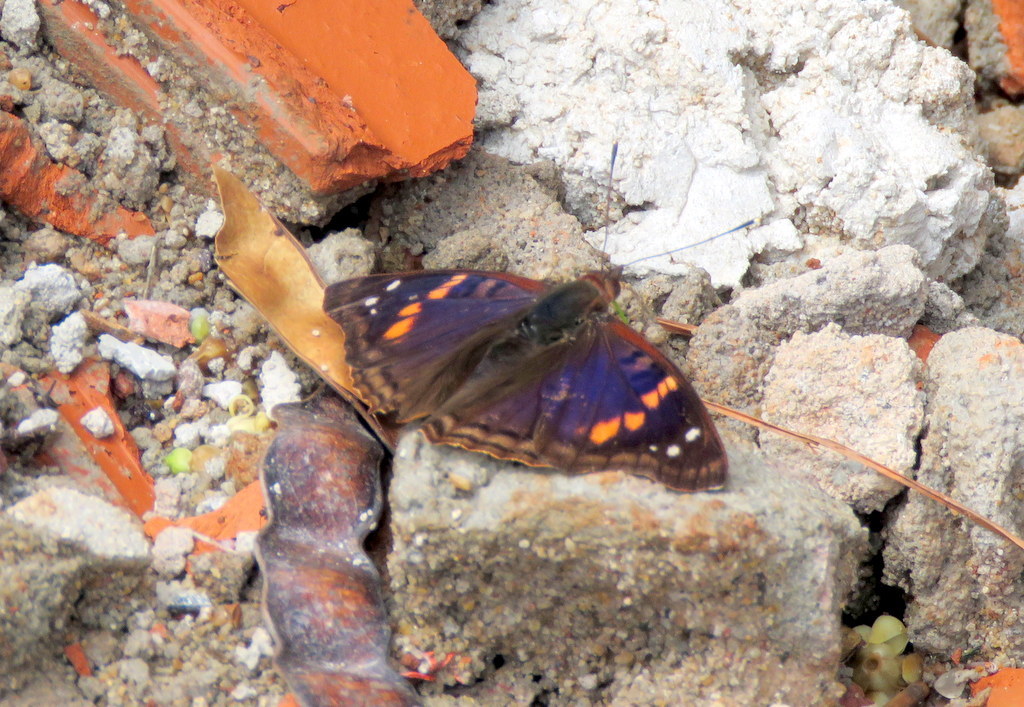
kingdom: Animalia
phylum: Arthropoda
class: Insecta
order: Lepidoptera
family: Nymphalidae
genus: Doxocopa
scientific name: Doxocopa agathina
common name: Agathina emperor
